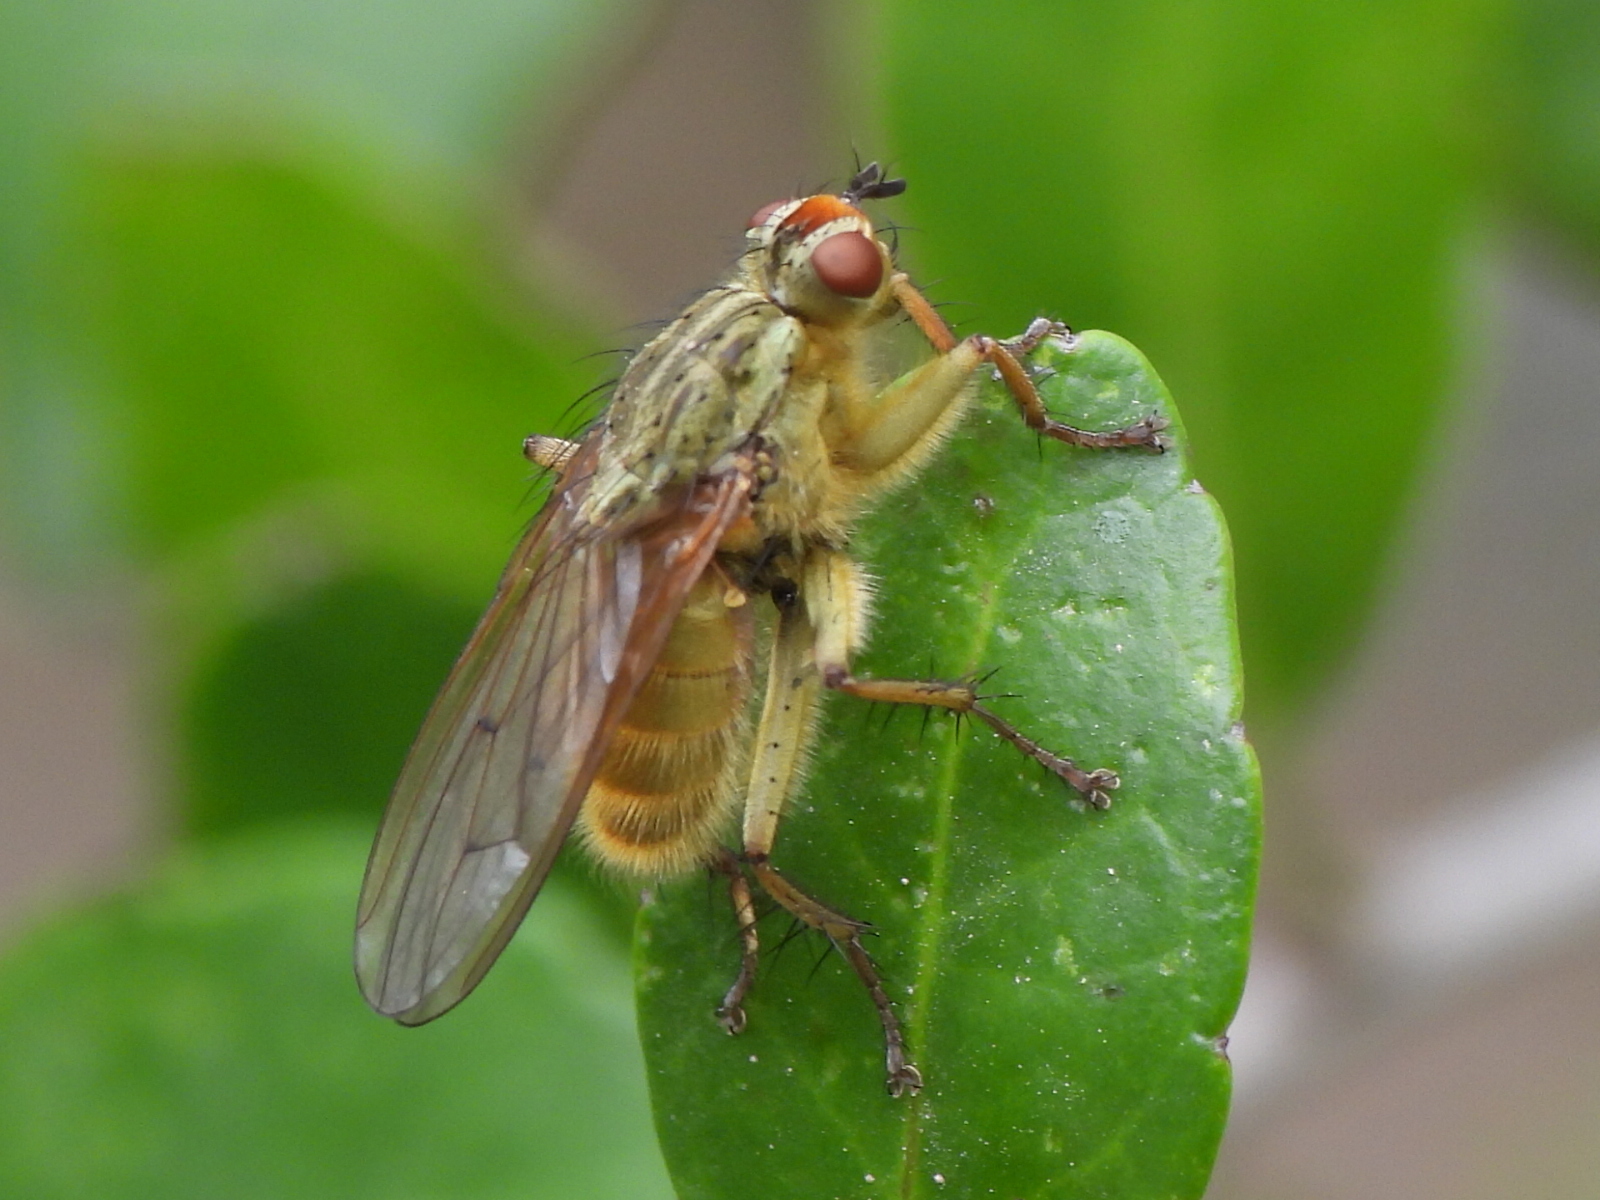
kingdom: Animalia
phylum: Arthropoda
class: Insecta
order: Diptera
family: Scathophagidae
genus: Scathophaga
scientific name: Scathophaga stercoraria
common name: Yellow dung fly
